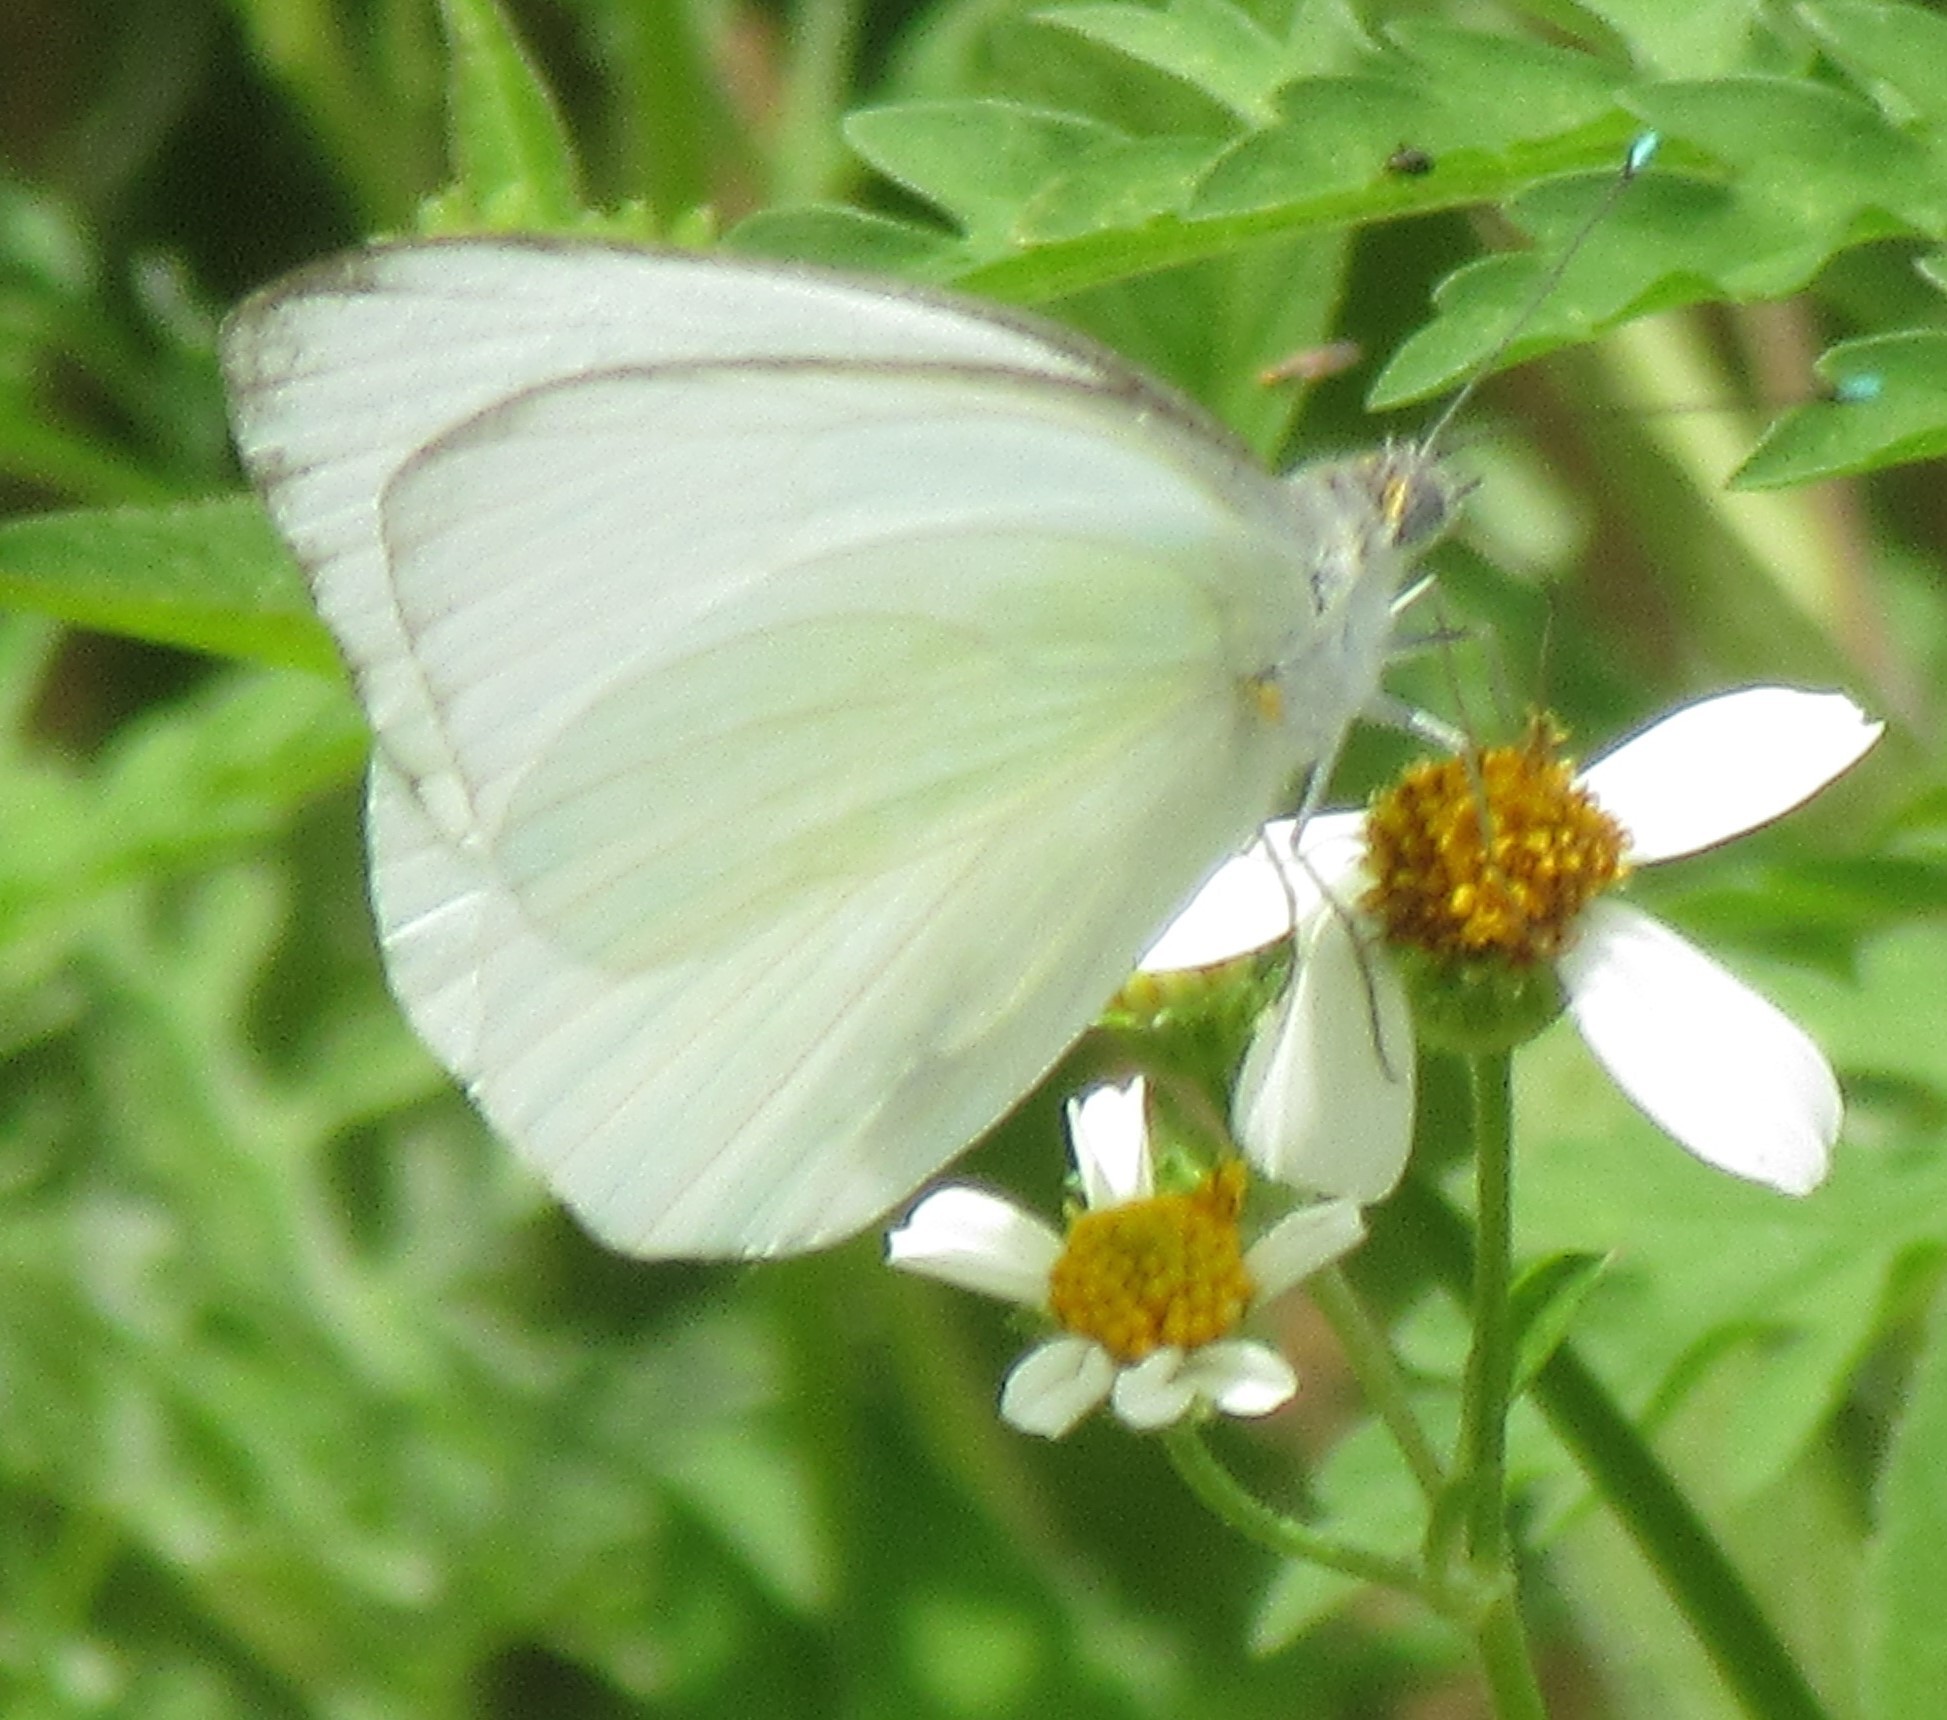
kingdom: Animalia
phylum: Arthropoda
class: Insecta
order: Lepidoptera
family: Pieridae
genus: Ascia
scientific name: Ascia monuste
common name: Great southern white
